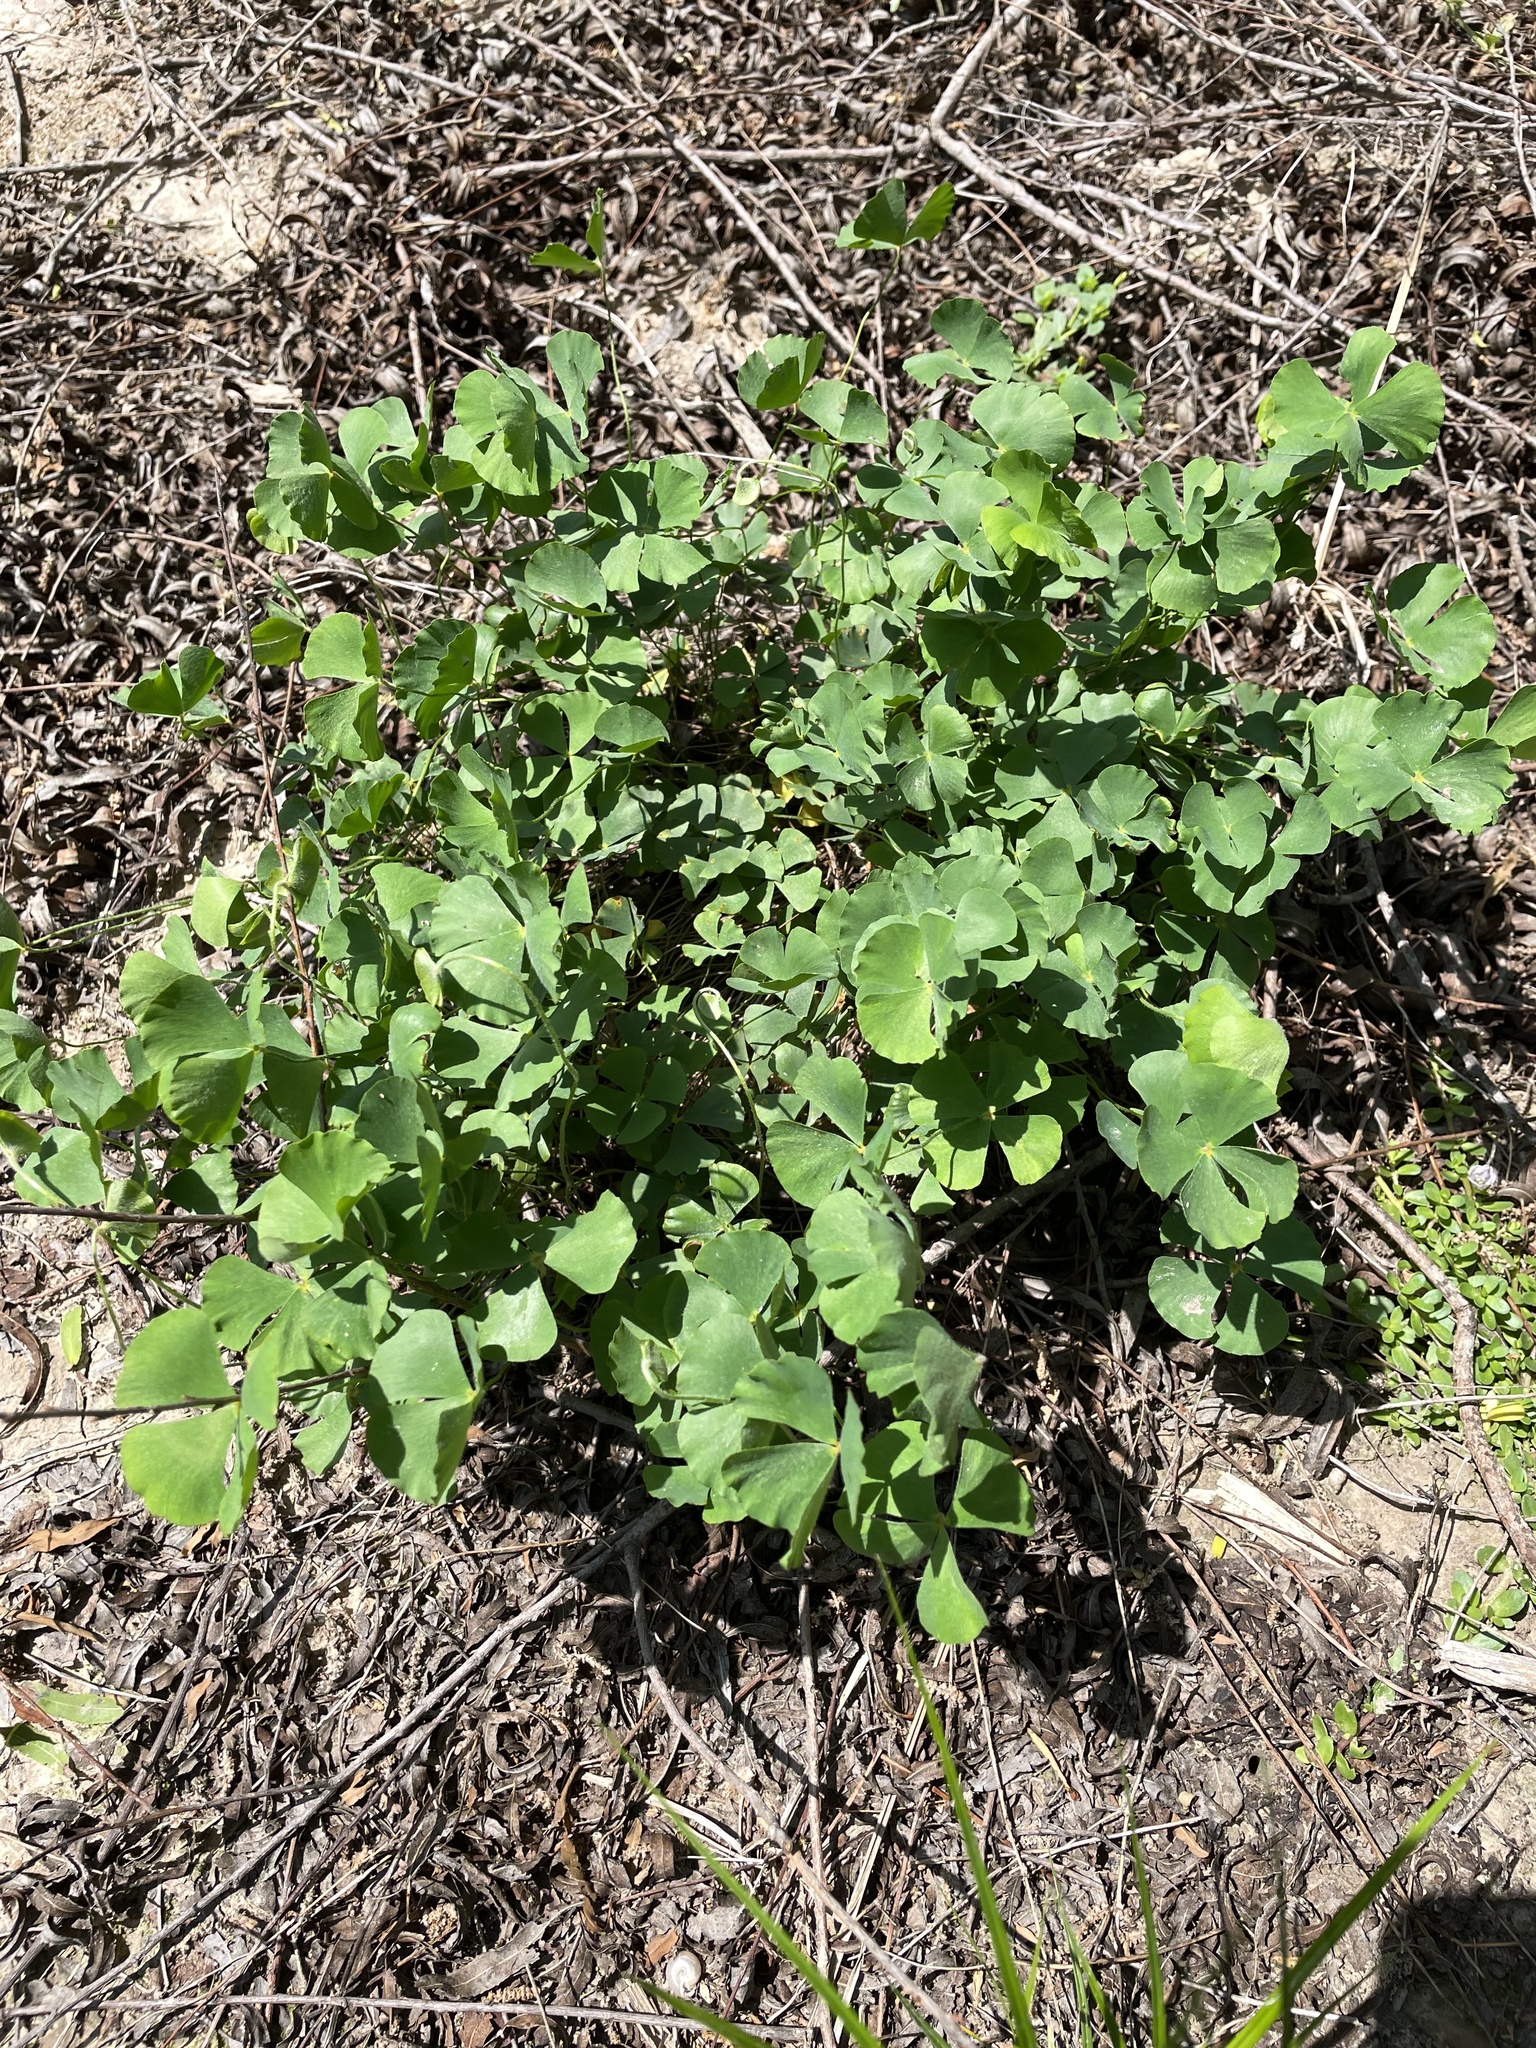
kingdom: Plantae
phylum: Tracheophyta
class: Polypodiopsida
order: Salviniales
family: Marsileaceae
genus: Marsilea
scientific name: Marsilea macropoda
